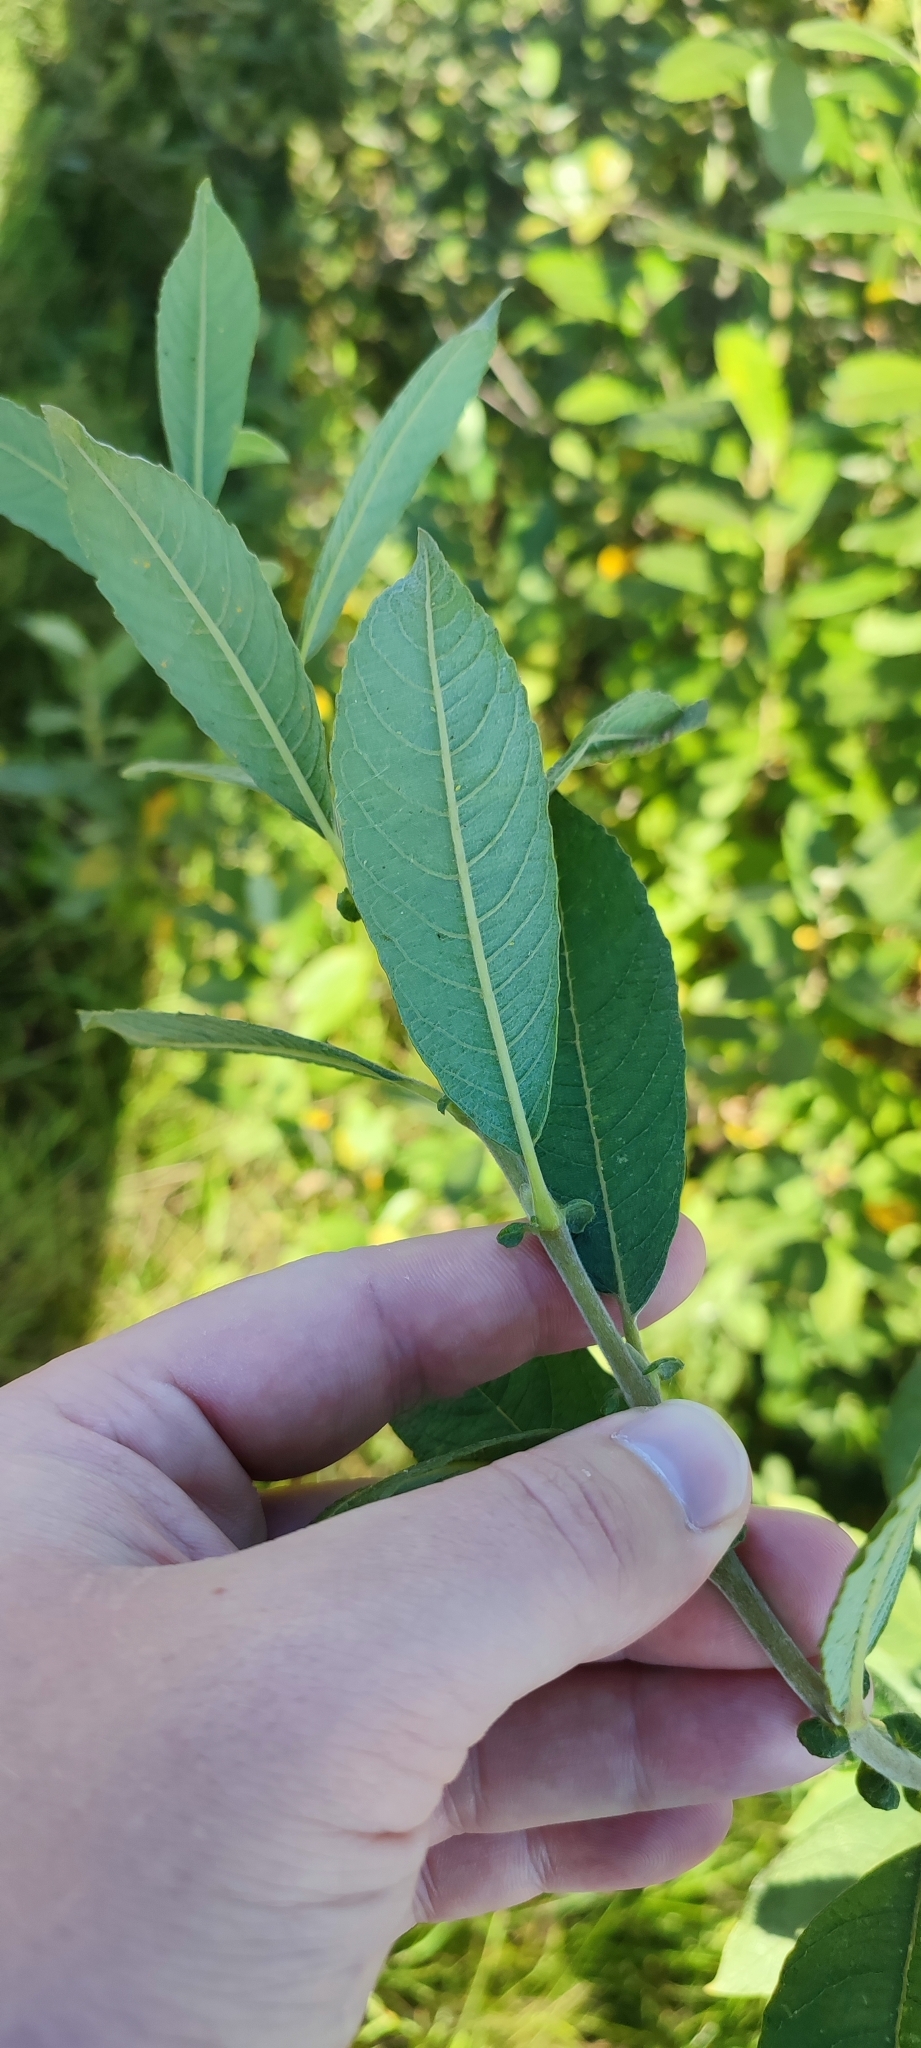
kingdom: Plantae
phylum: Tracheophyta
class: Magnoliopsida
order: Malpighiales
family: Salicaceae
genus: Salix
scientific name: Salix cinerea
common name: Common sallow
